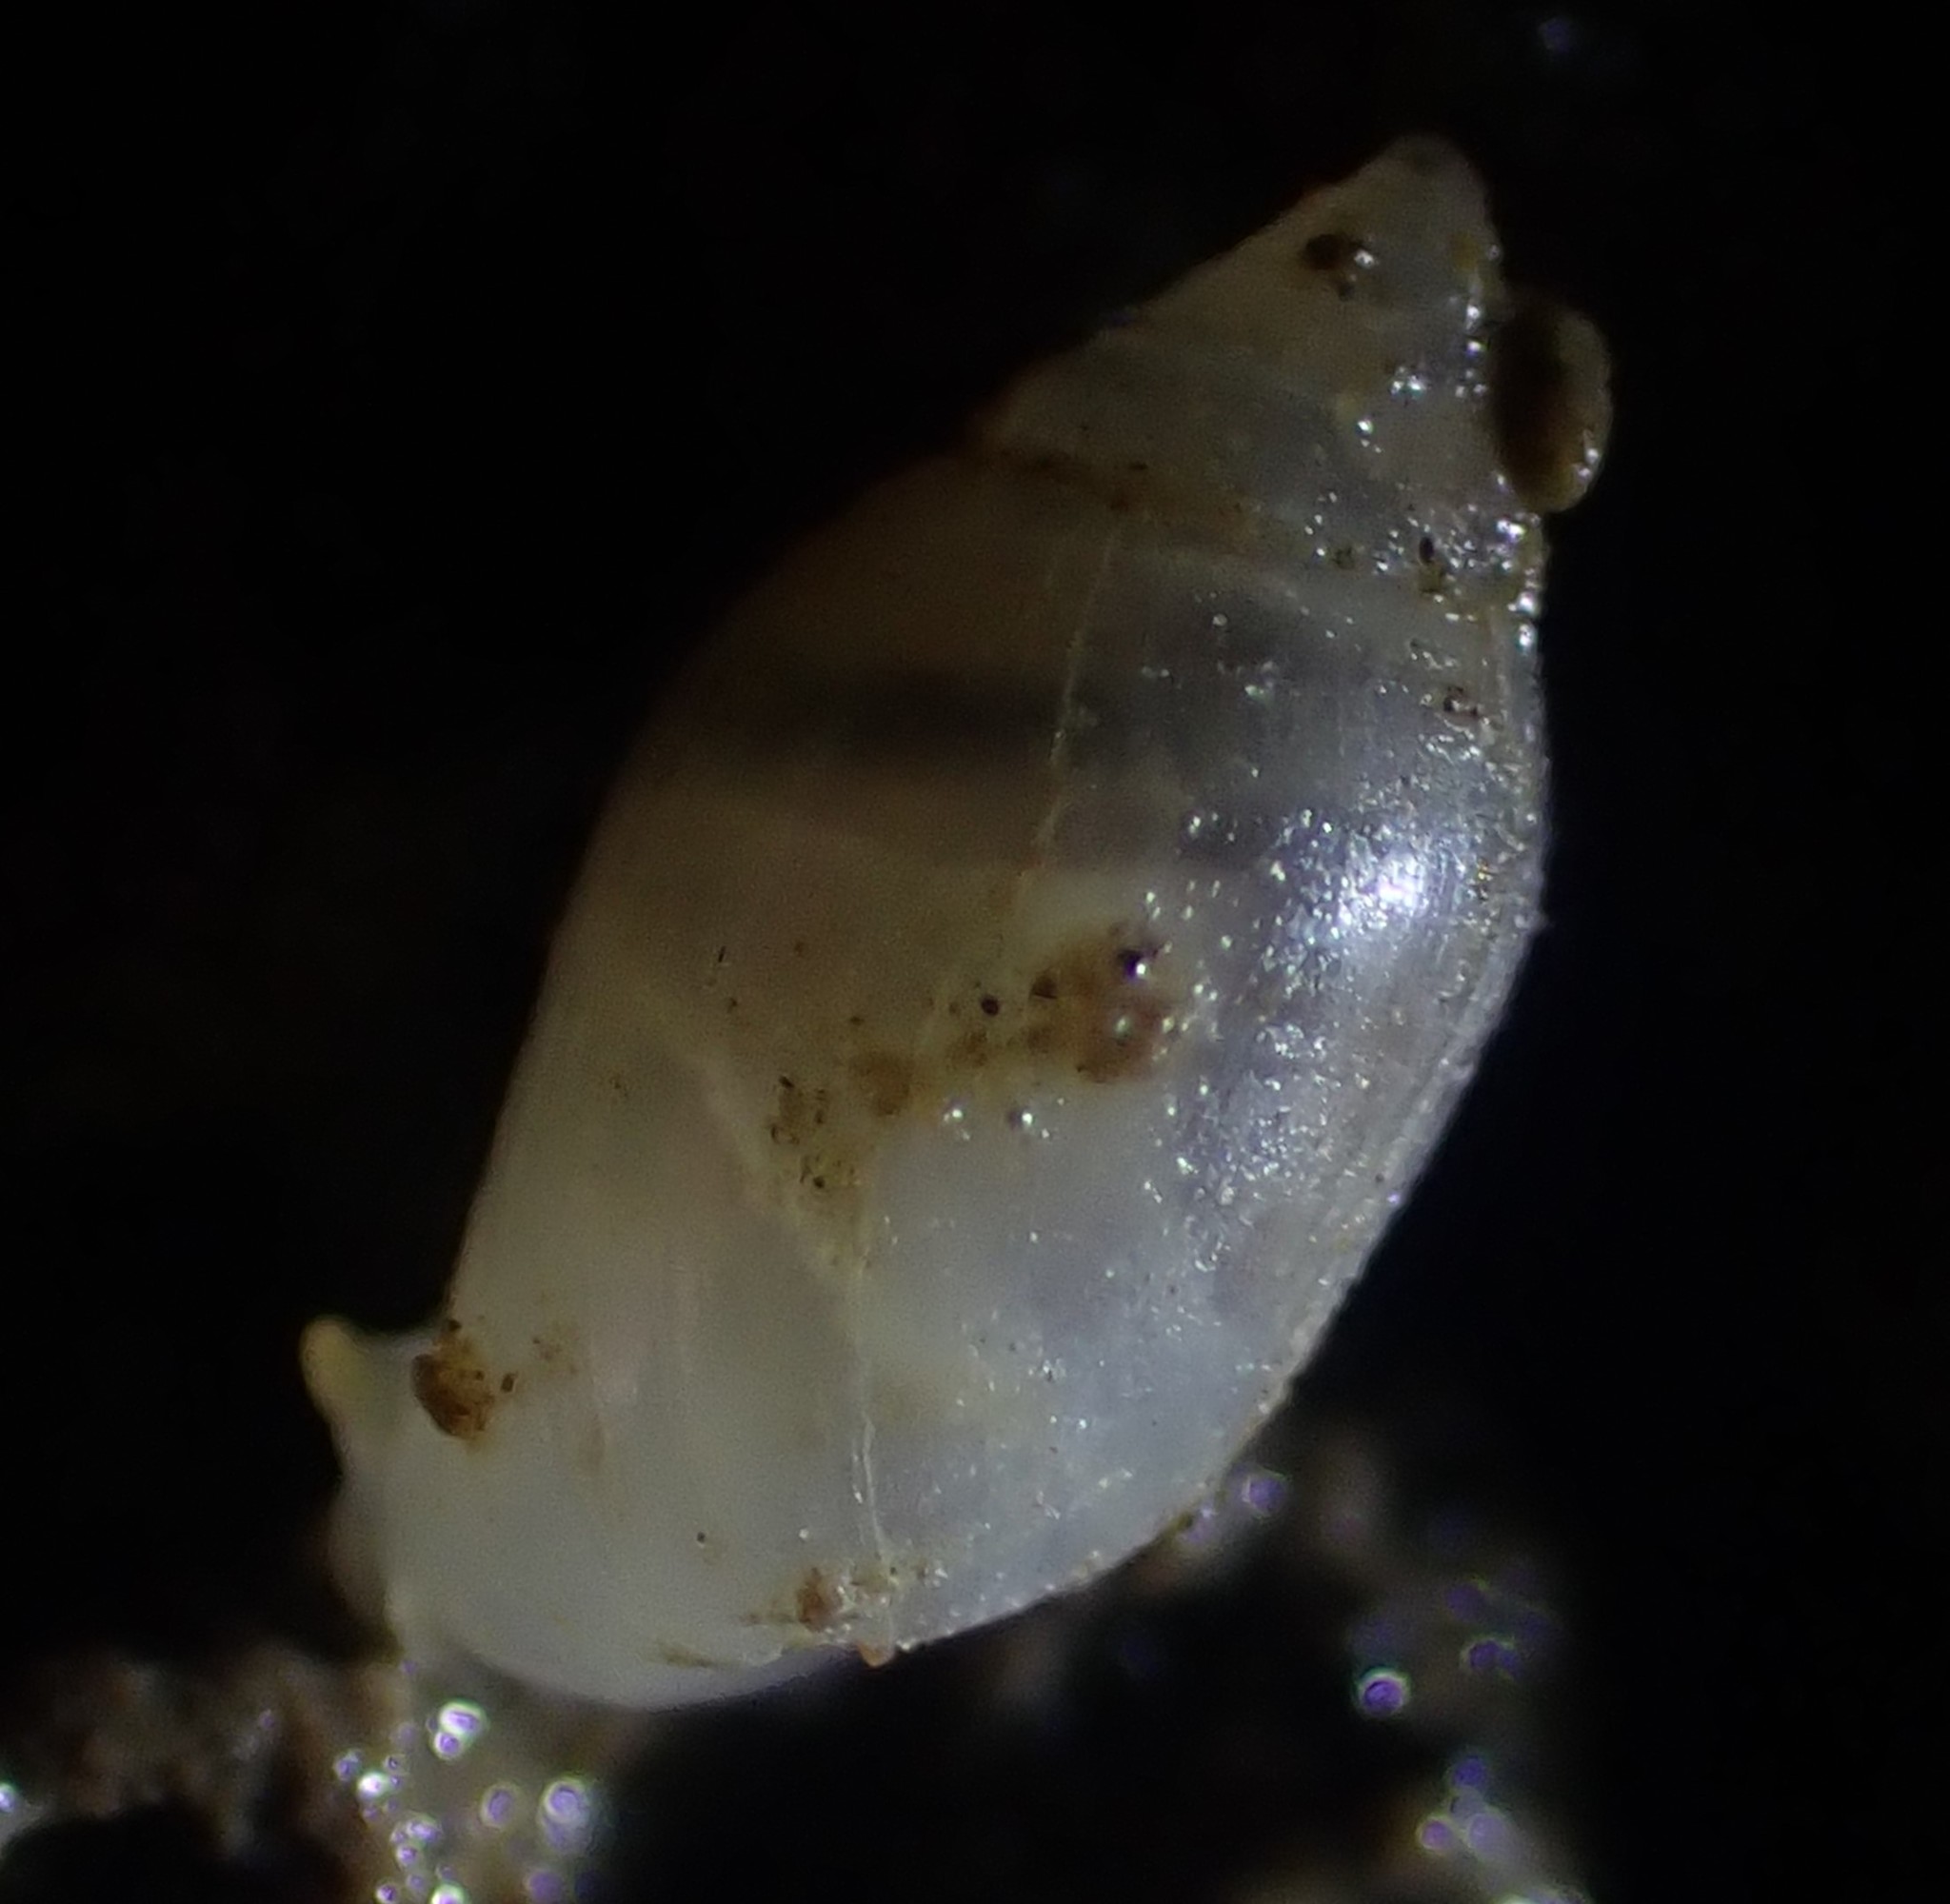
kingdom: Animalia
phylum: Mollusca
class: Gastropoda
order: Ellobiida
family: Ellobiidae
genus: Microtralia
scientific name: Microtralia insularis
